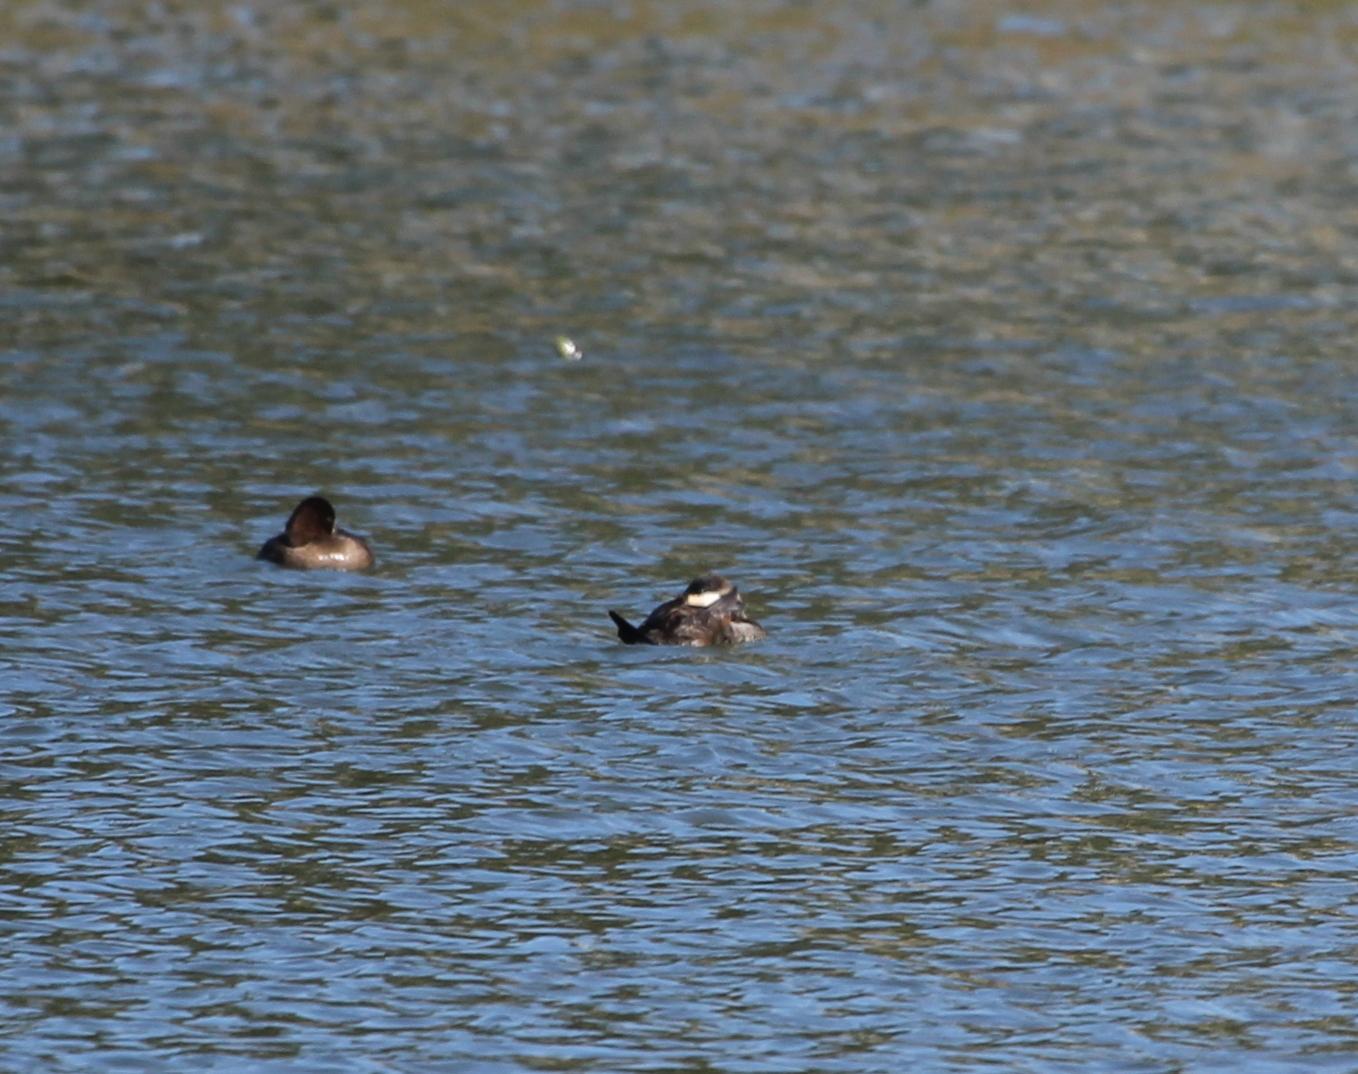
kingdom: Animalia
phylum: Chordata
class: Aves
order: Anseriformes
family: Anatidae
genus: Oxyura
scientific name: Oxyura jamaicensis
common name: Ruddy duck
